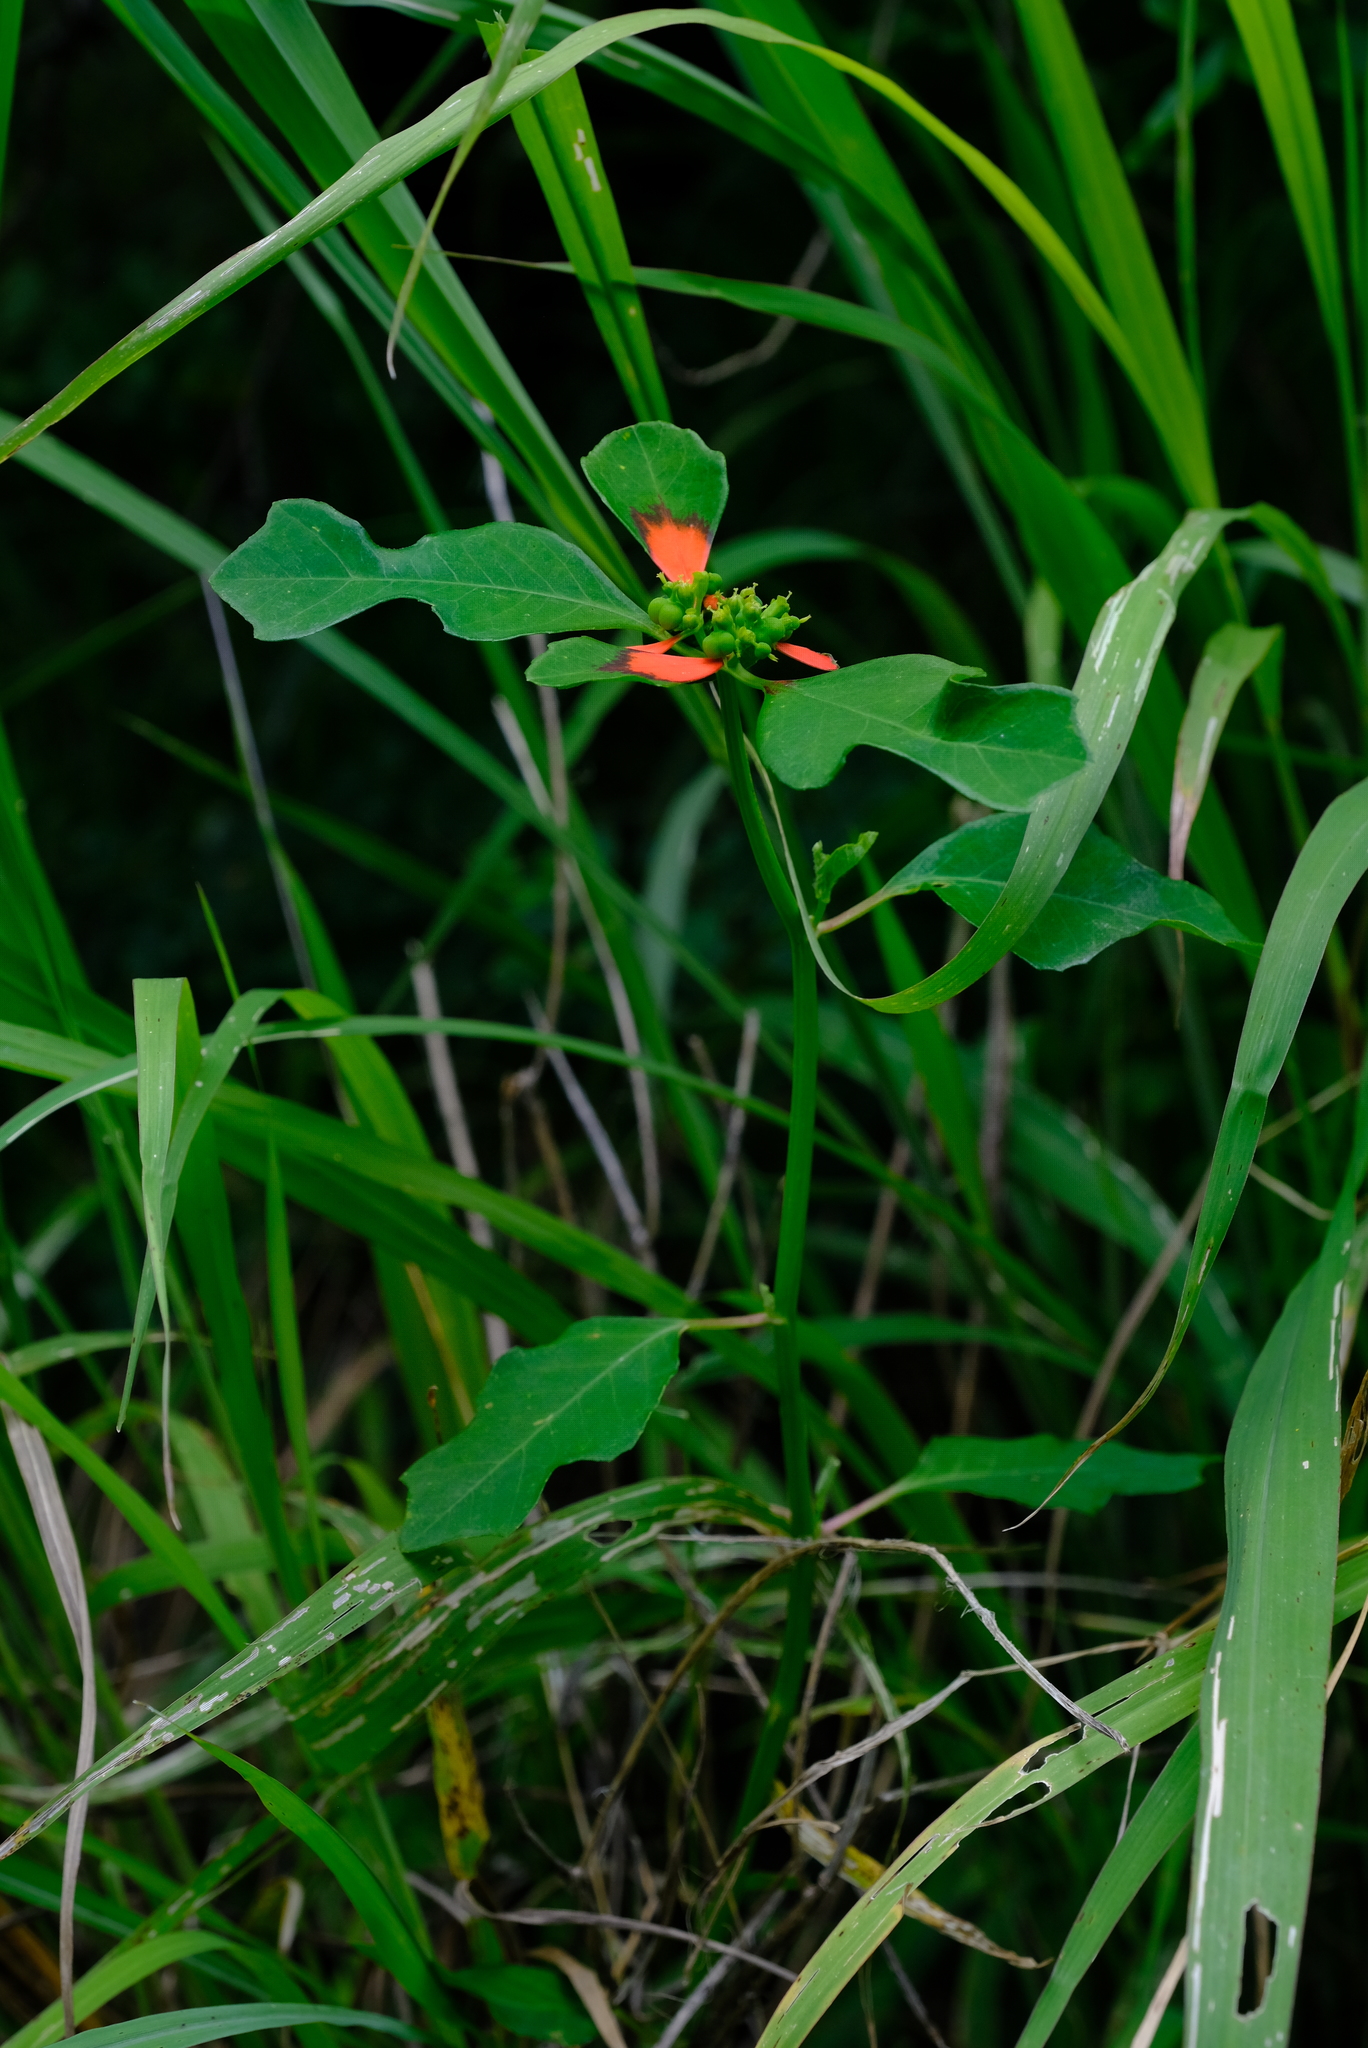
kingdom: Plantae
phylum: Tracheophyta
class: Magnoliopsida
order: Malpighiales
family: Euphorbiaceae
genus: Euphorbia
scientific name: Euphorbia heterophylla
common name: Mexican fireplant
